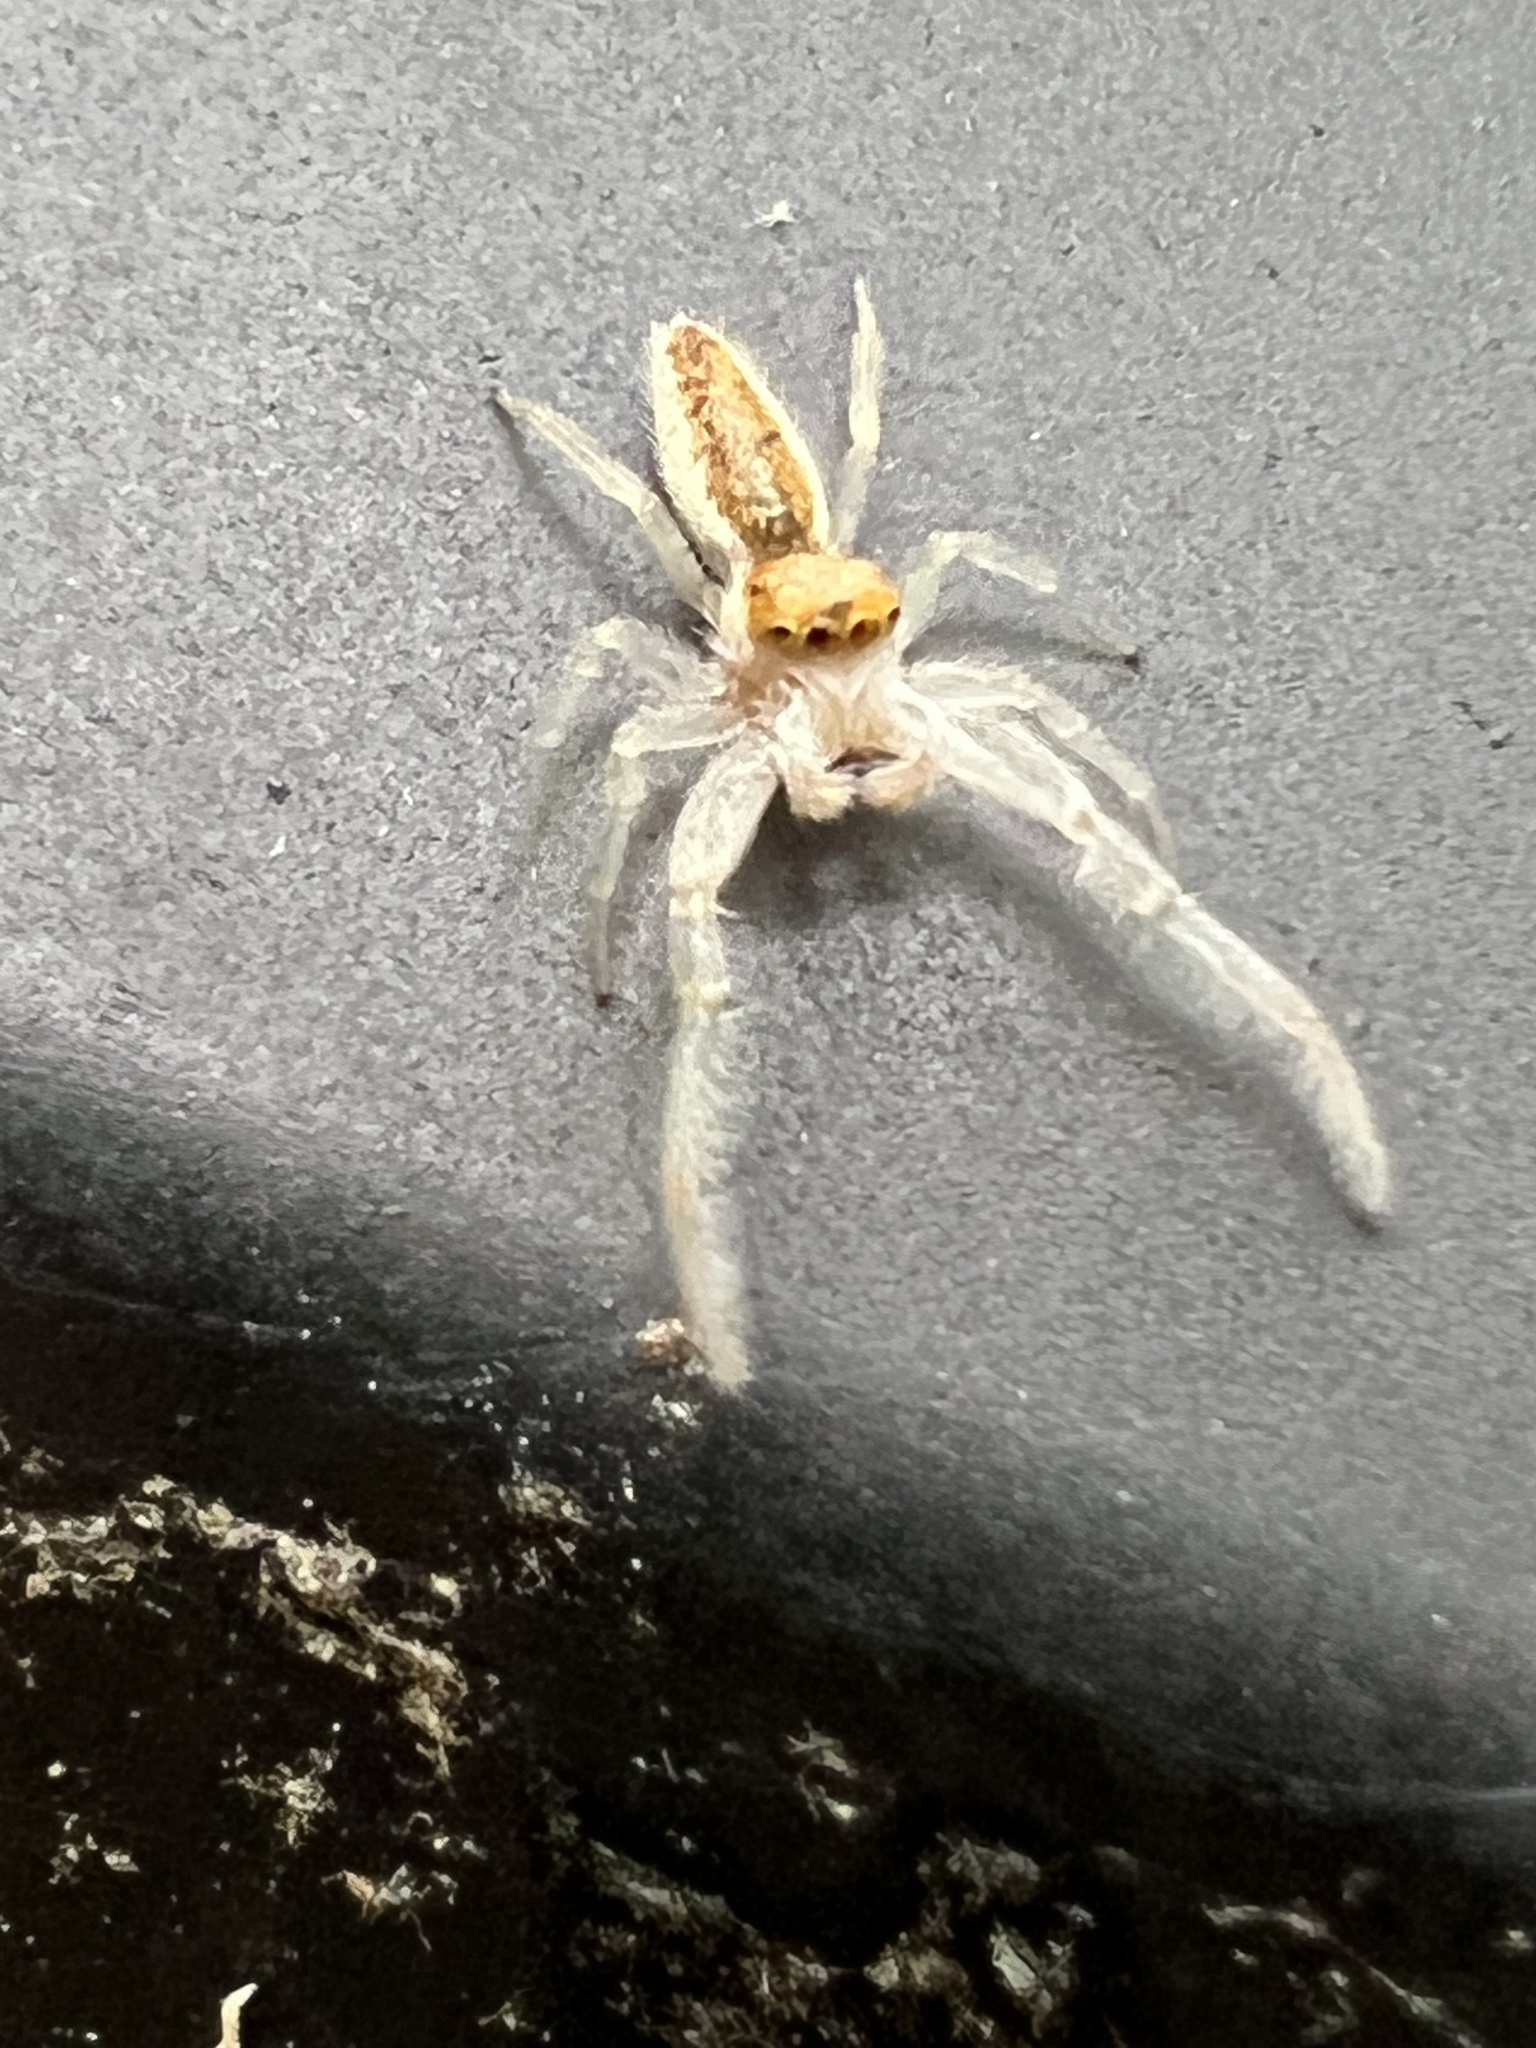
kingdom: Animalia
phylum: Arthropoda
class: Arachnida
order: Araneae
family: Salticidae
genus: Hentzia
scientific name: Hentzia mitrata
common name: White-jawed jumping spider
